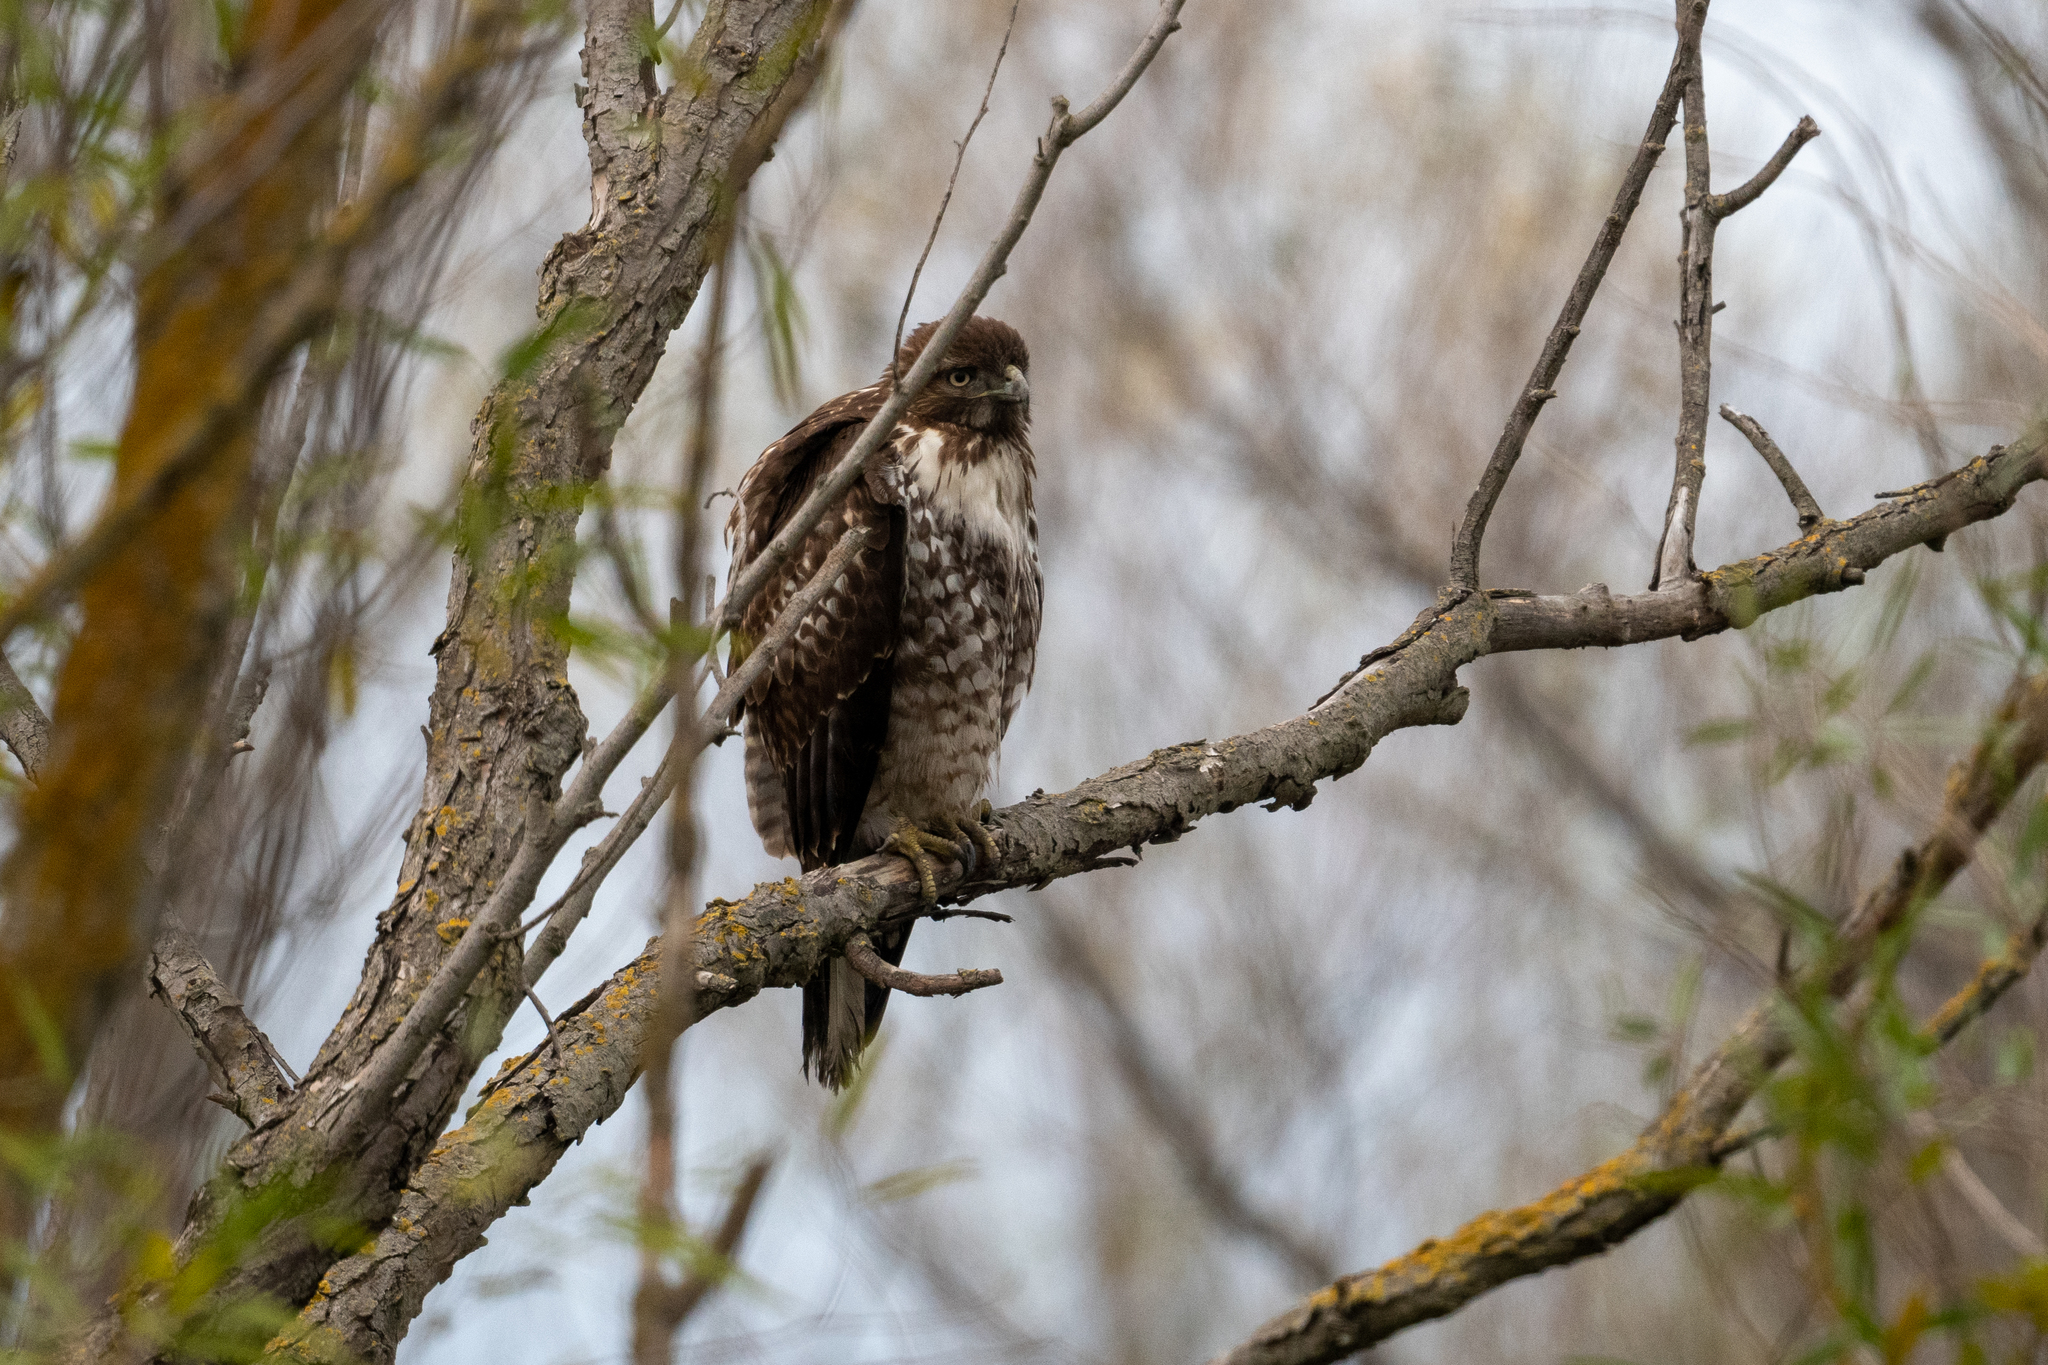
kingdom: Animalia
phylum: Chordata
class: Aves
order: Accipitriformes
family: Accipitridae
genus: Buteo
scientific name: Buteo jamaicensis
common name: Red-tailed hawk
